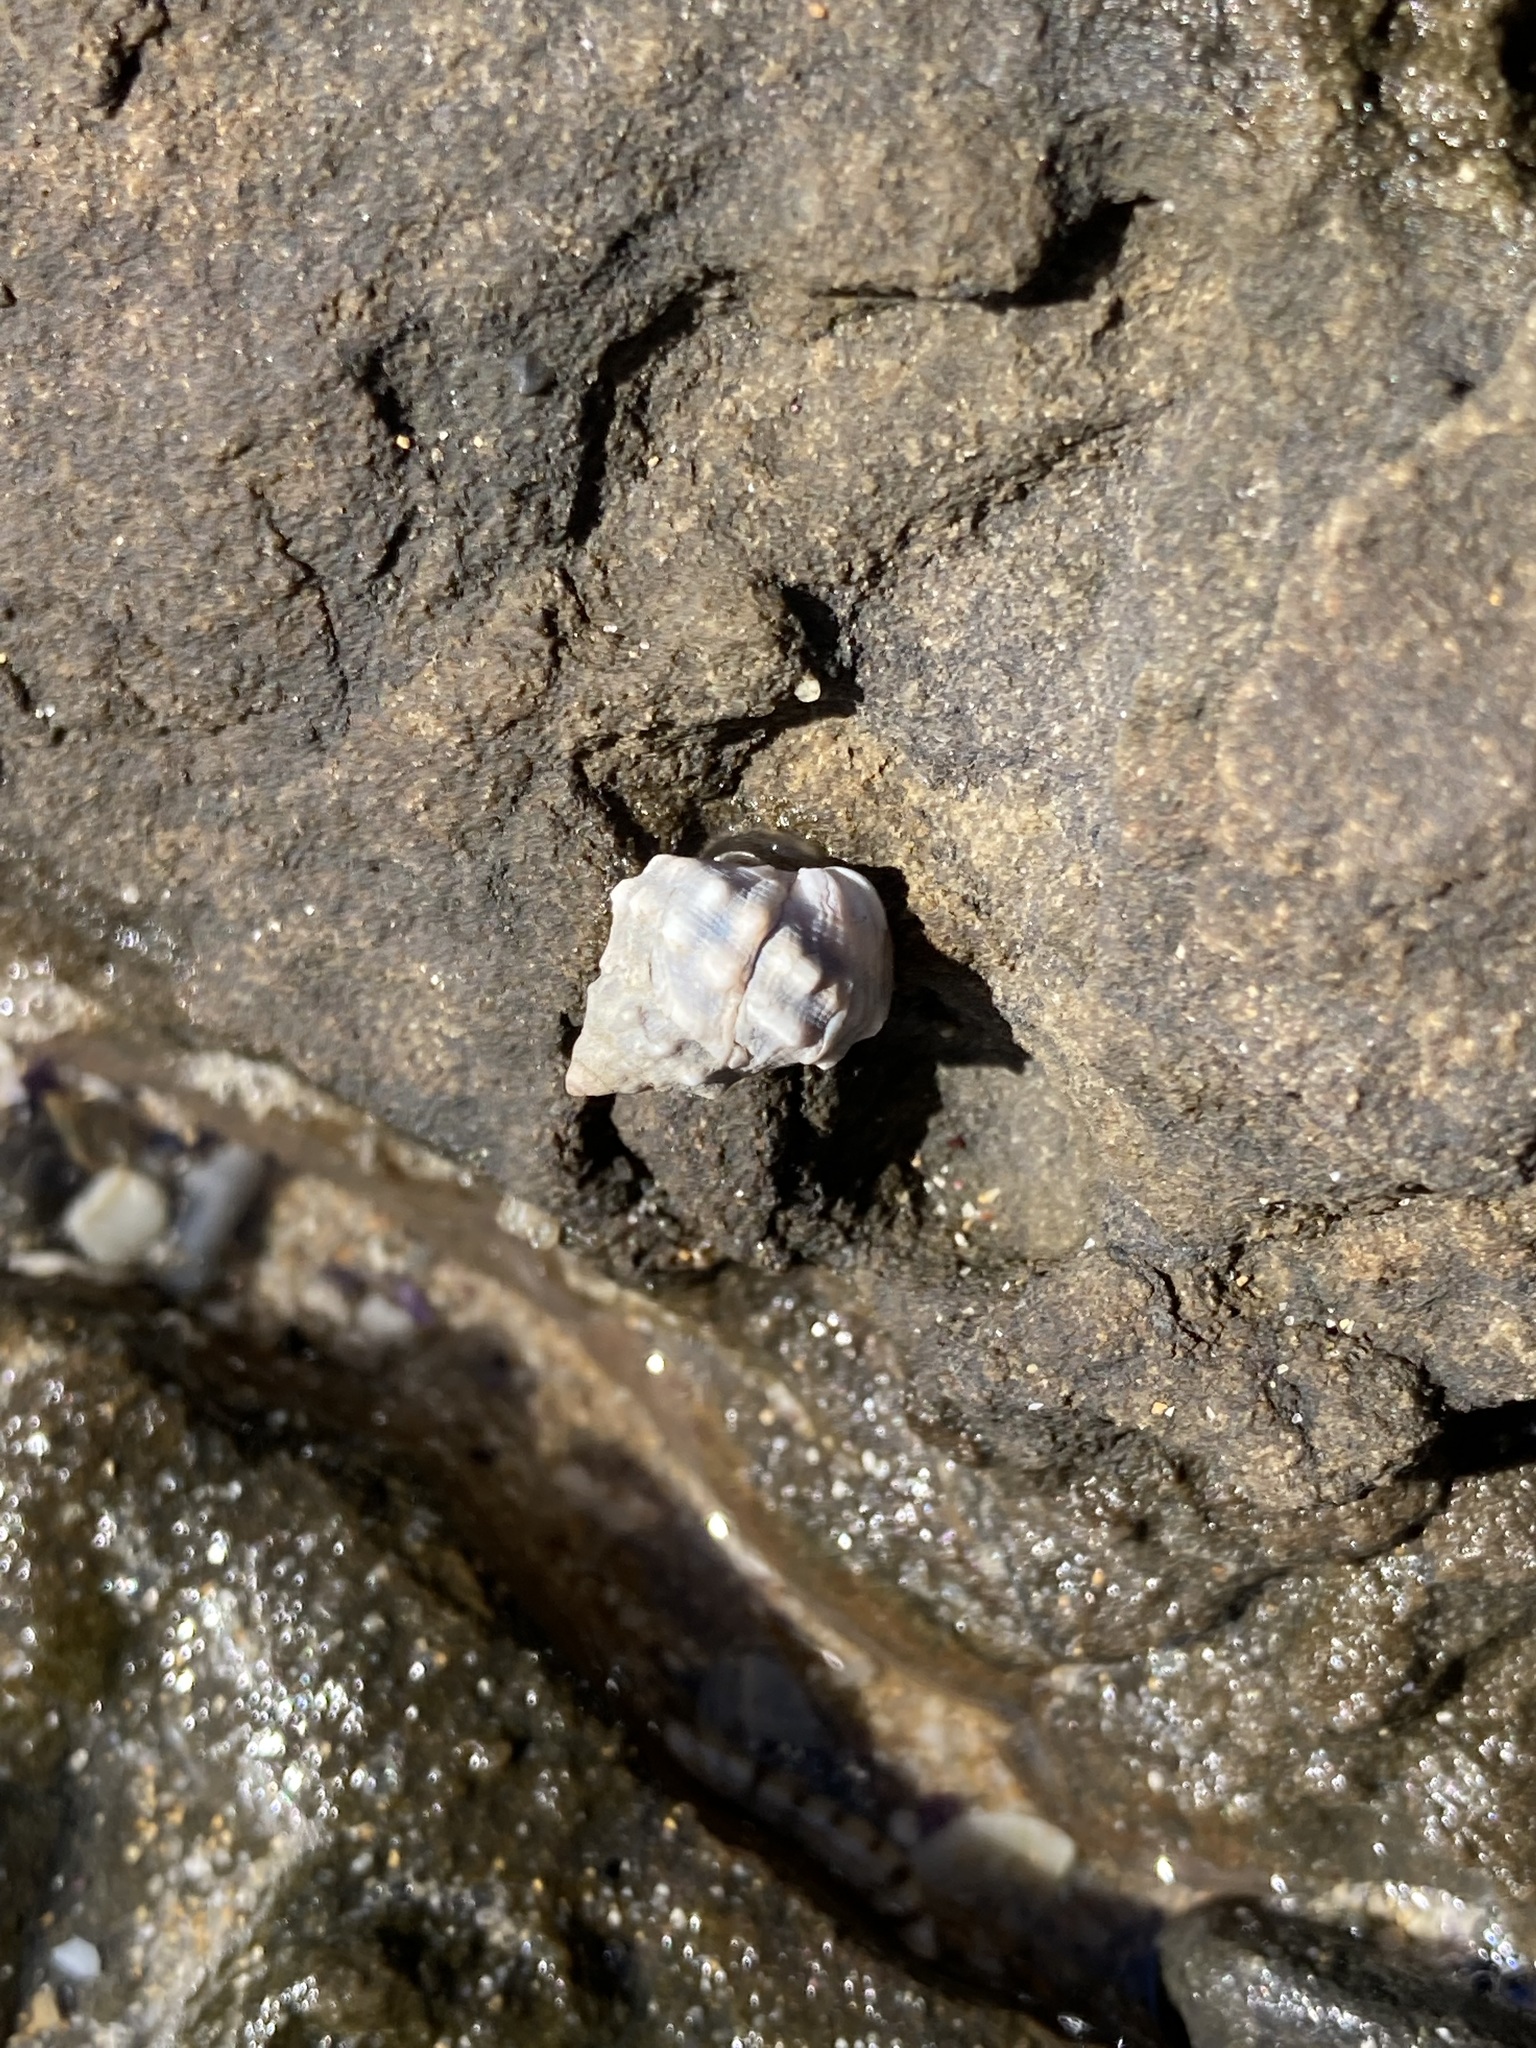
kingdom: Animalia
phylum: Mollusca
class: Gastropoda
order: Littorinimorpha
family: Littorinidae
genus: Nodilittorina
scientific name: Nodilittorina pyramidalis
